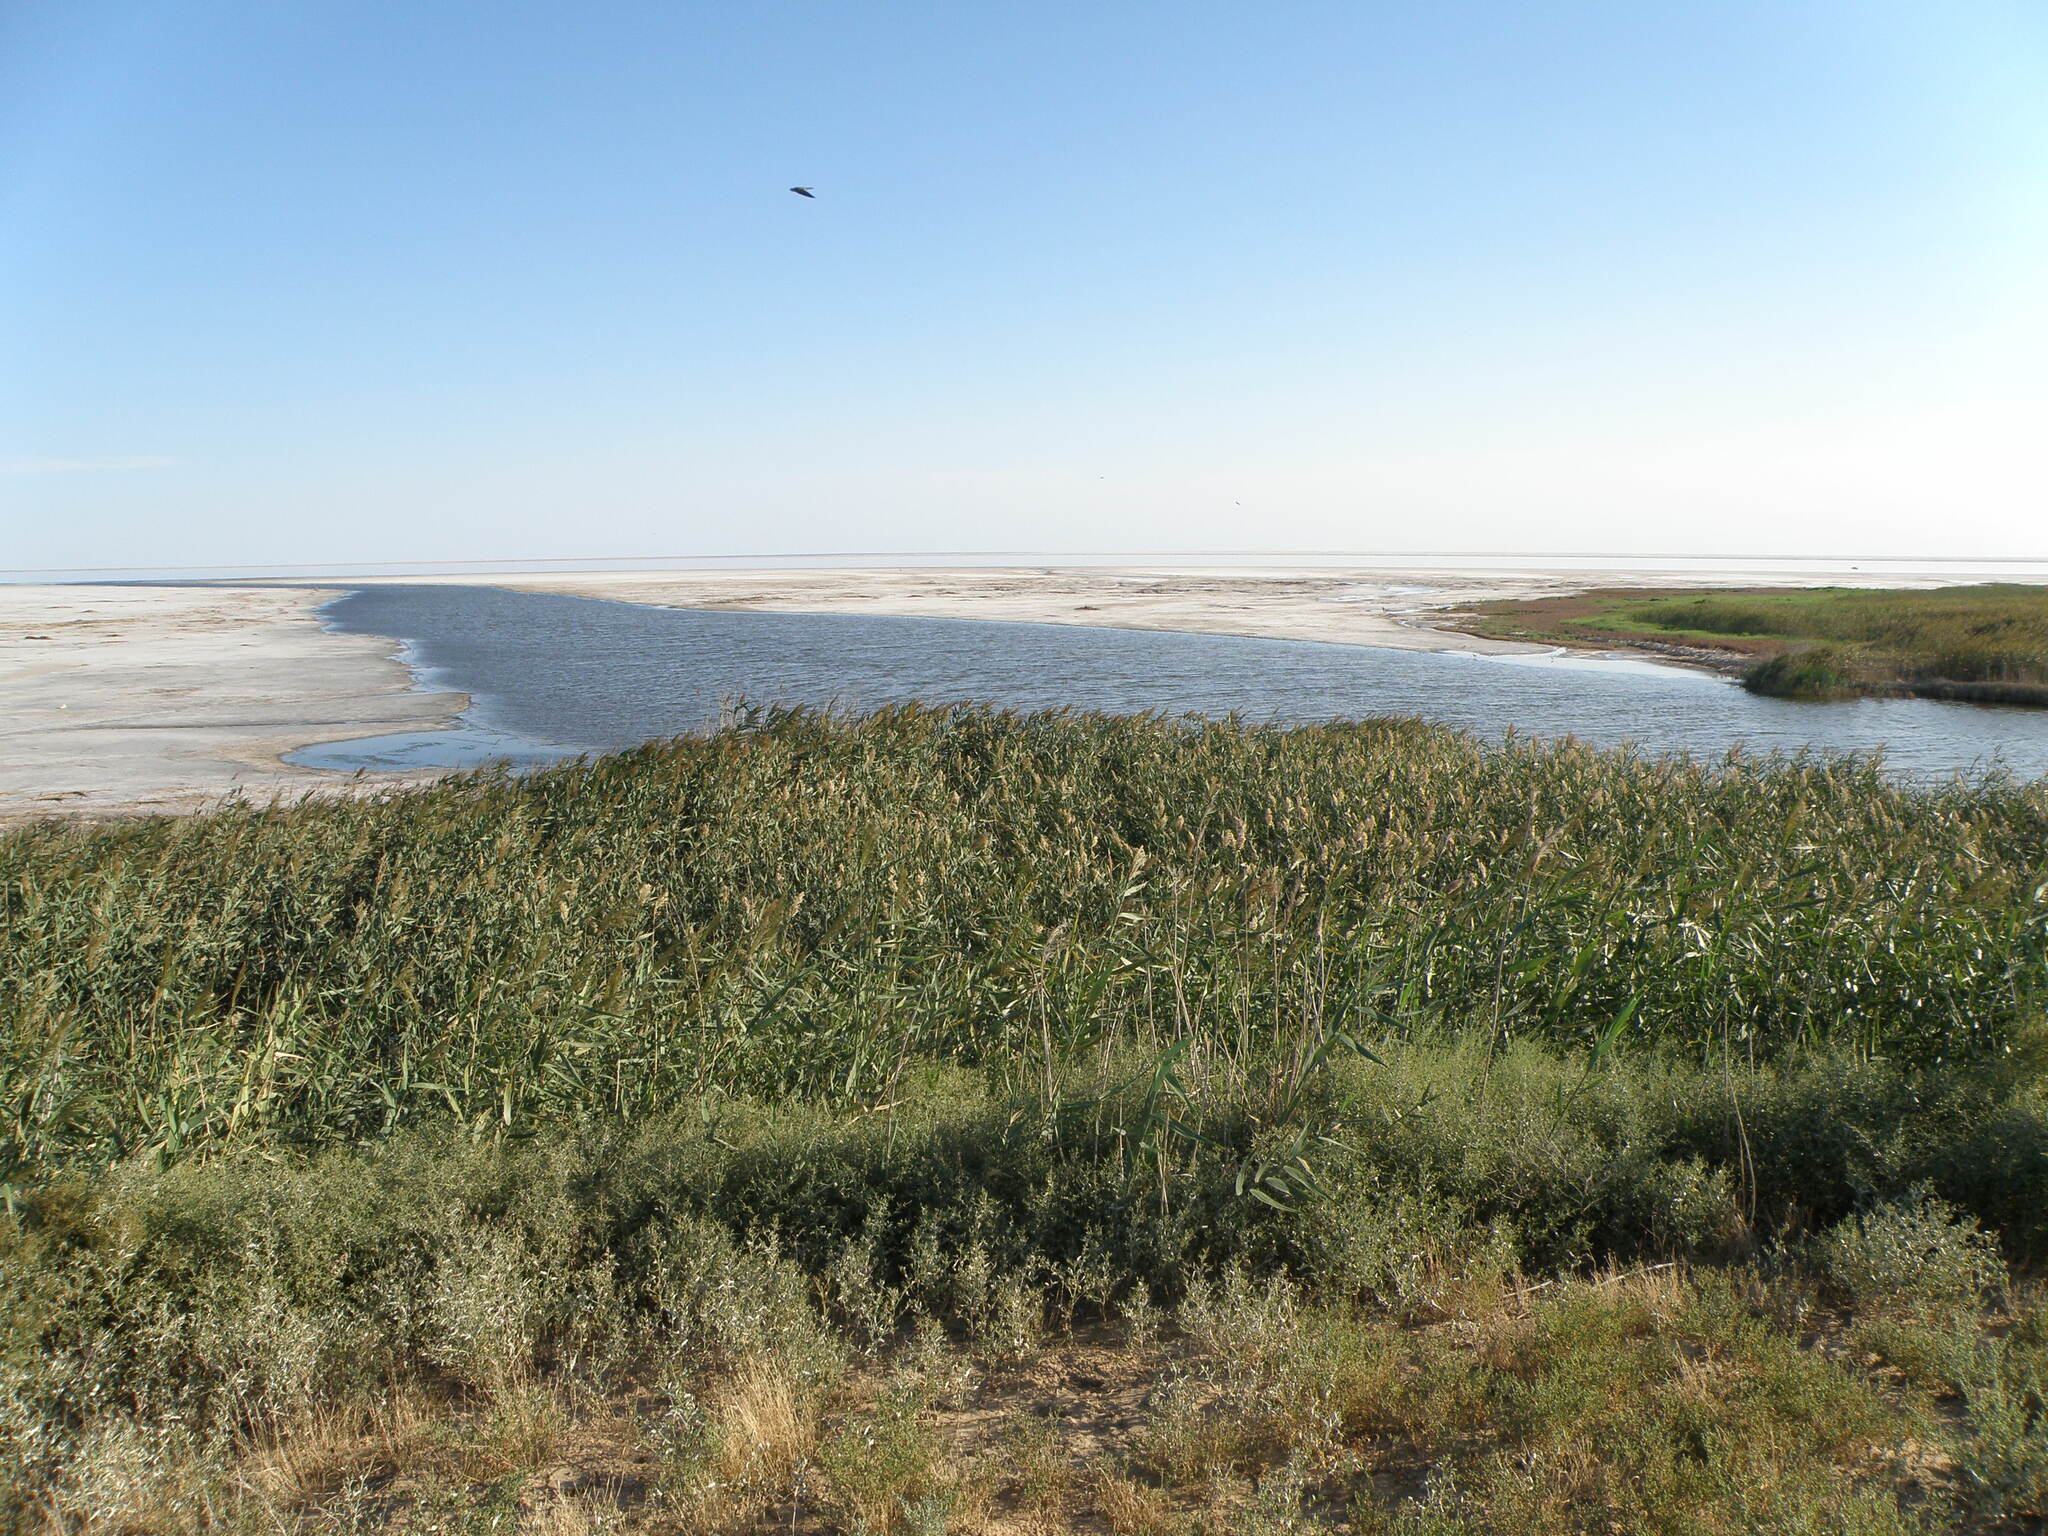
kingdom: Plantae
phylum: Tracheophyta
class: Liliopsida
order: Poales
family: Poaceae
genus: Phragmites
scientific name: Phragmites australis
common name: Common reed
